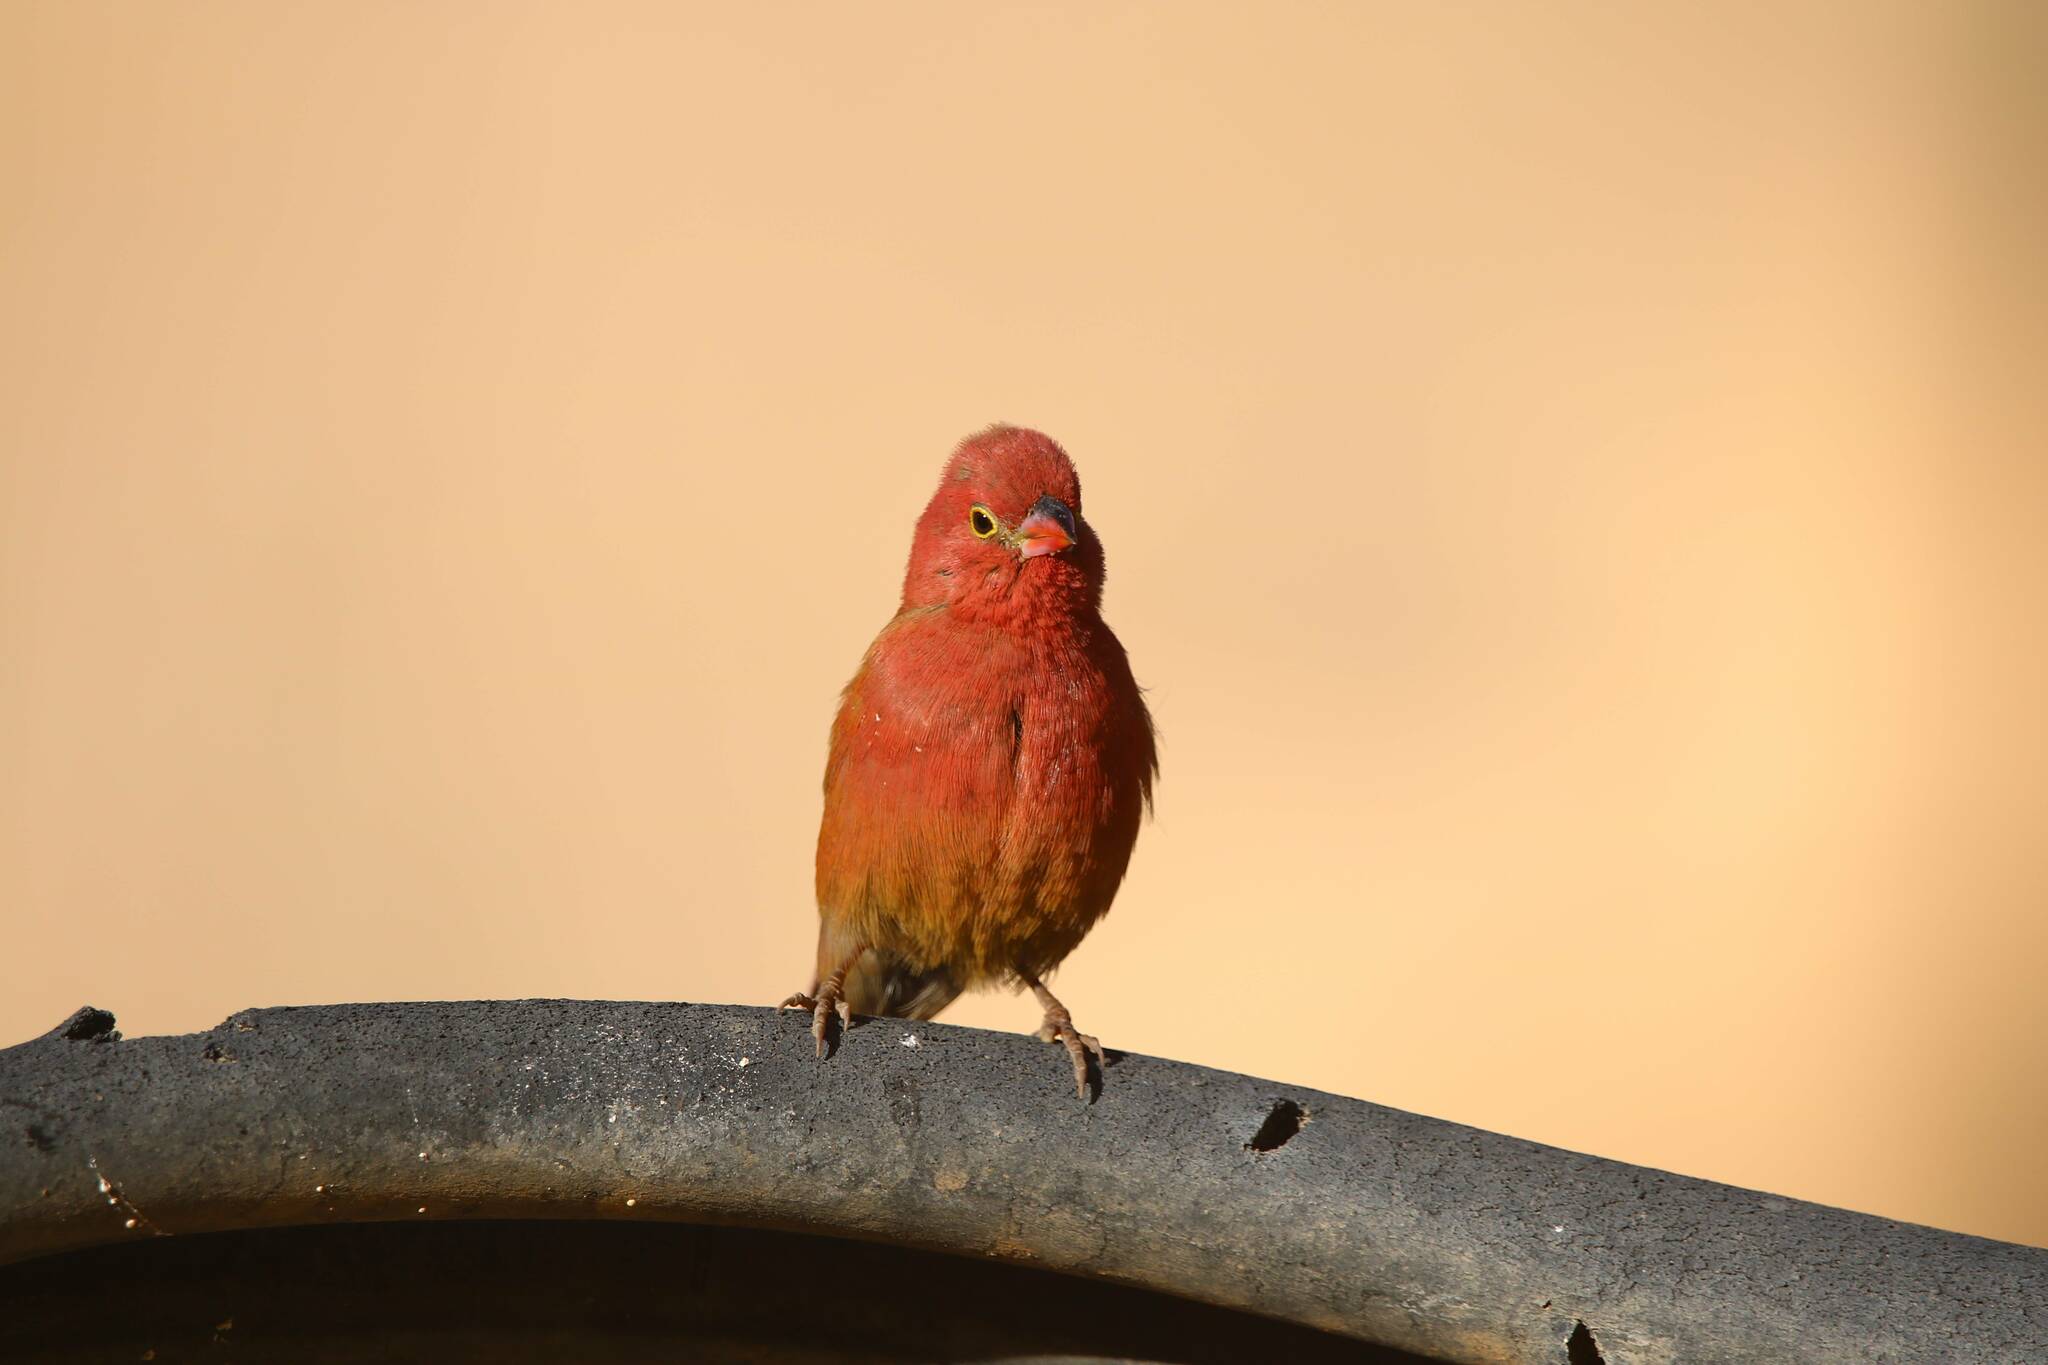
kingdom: Animalia
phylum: Chordata
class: Aves
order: Passeriformes
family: Estrildidae
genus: Lagonosticta
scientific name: Lagonosticta senegala
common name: Red-billed firefinch
